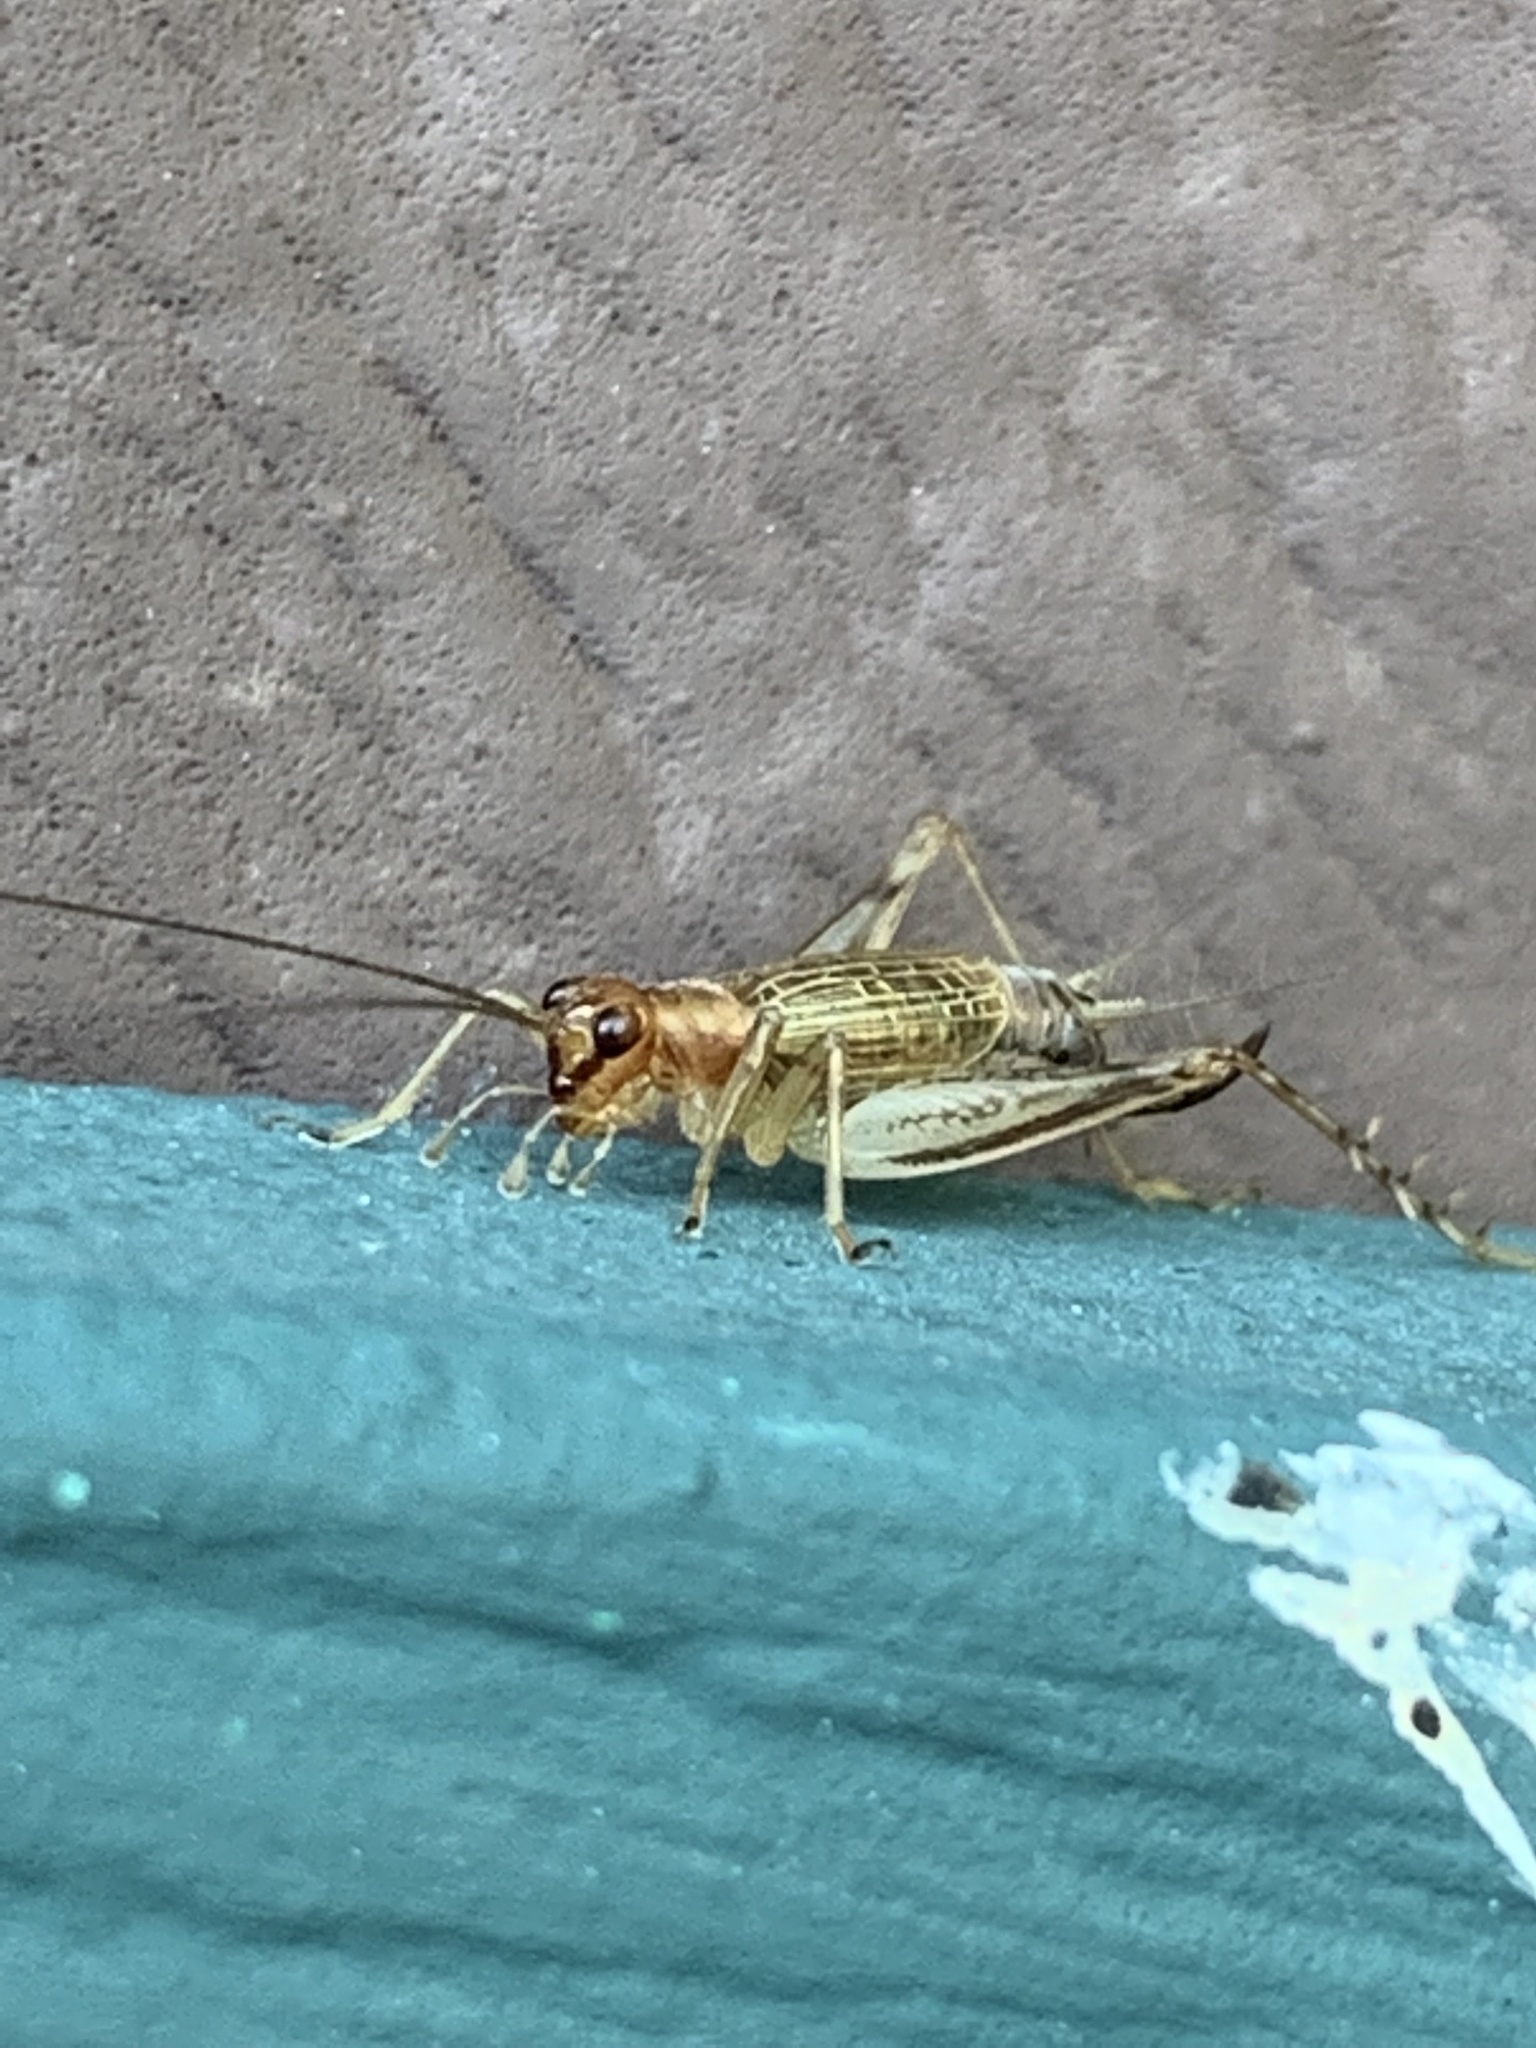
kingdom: Animalia
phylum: Arthropoda
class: Insecta
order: Orthoptera
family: Trigonidiidae
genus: Anaxipha
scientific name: Anaxipha exigua
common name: Say's bush cricket
